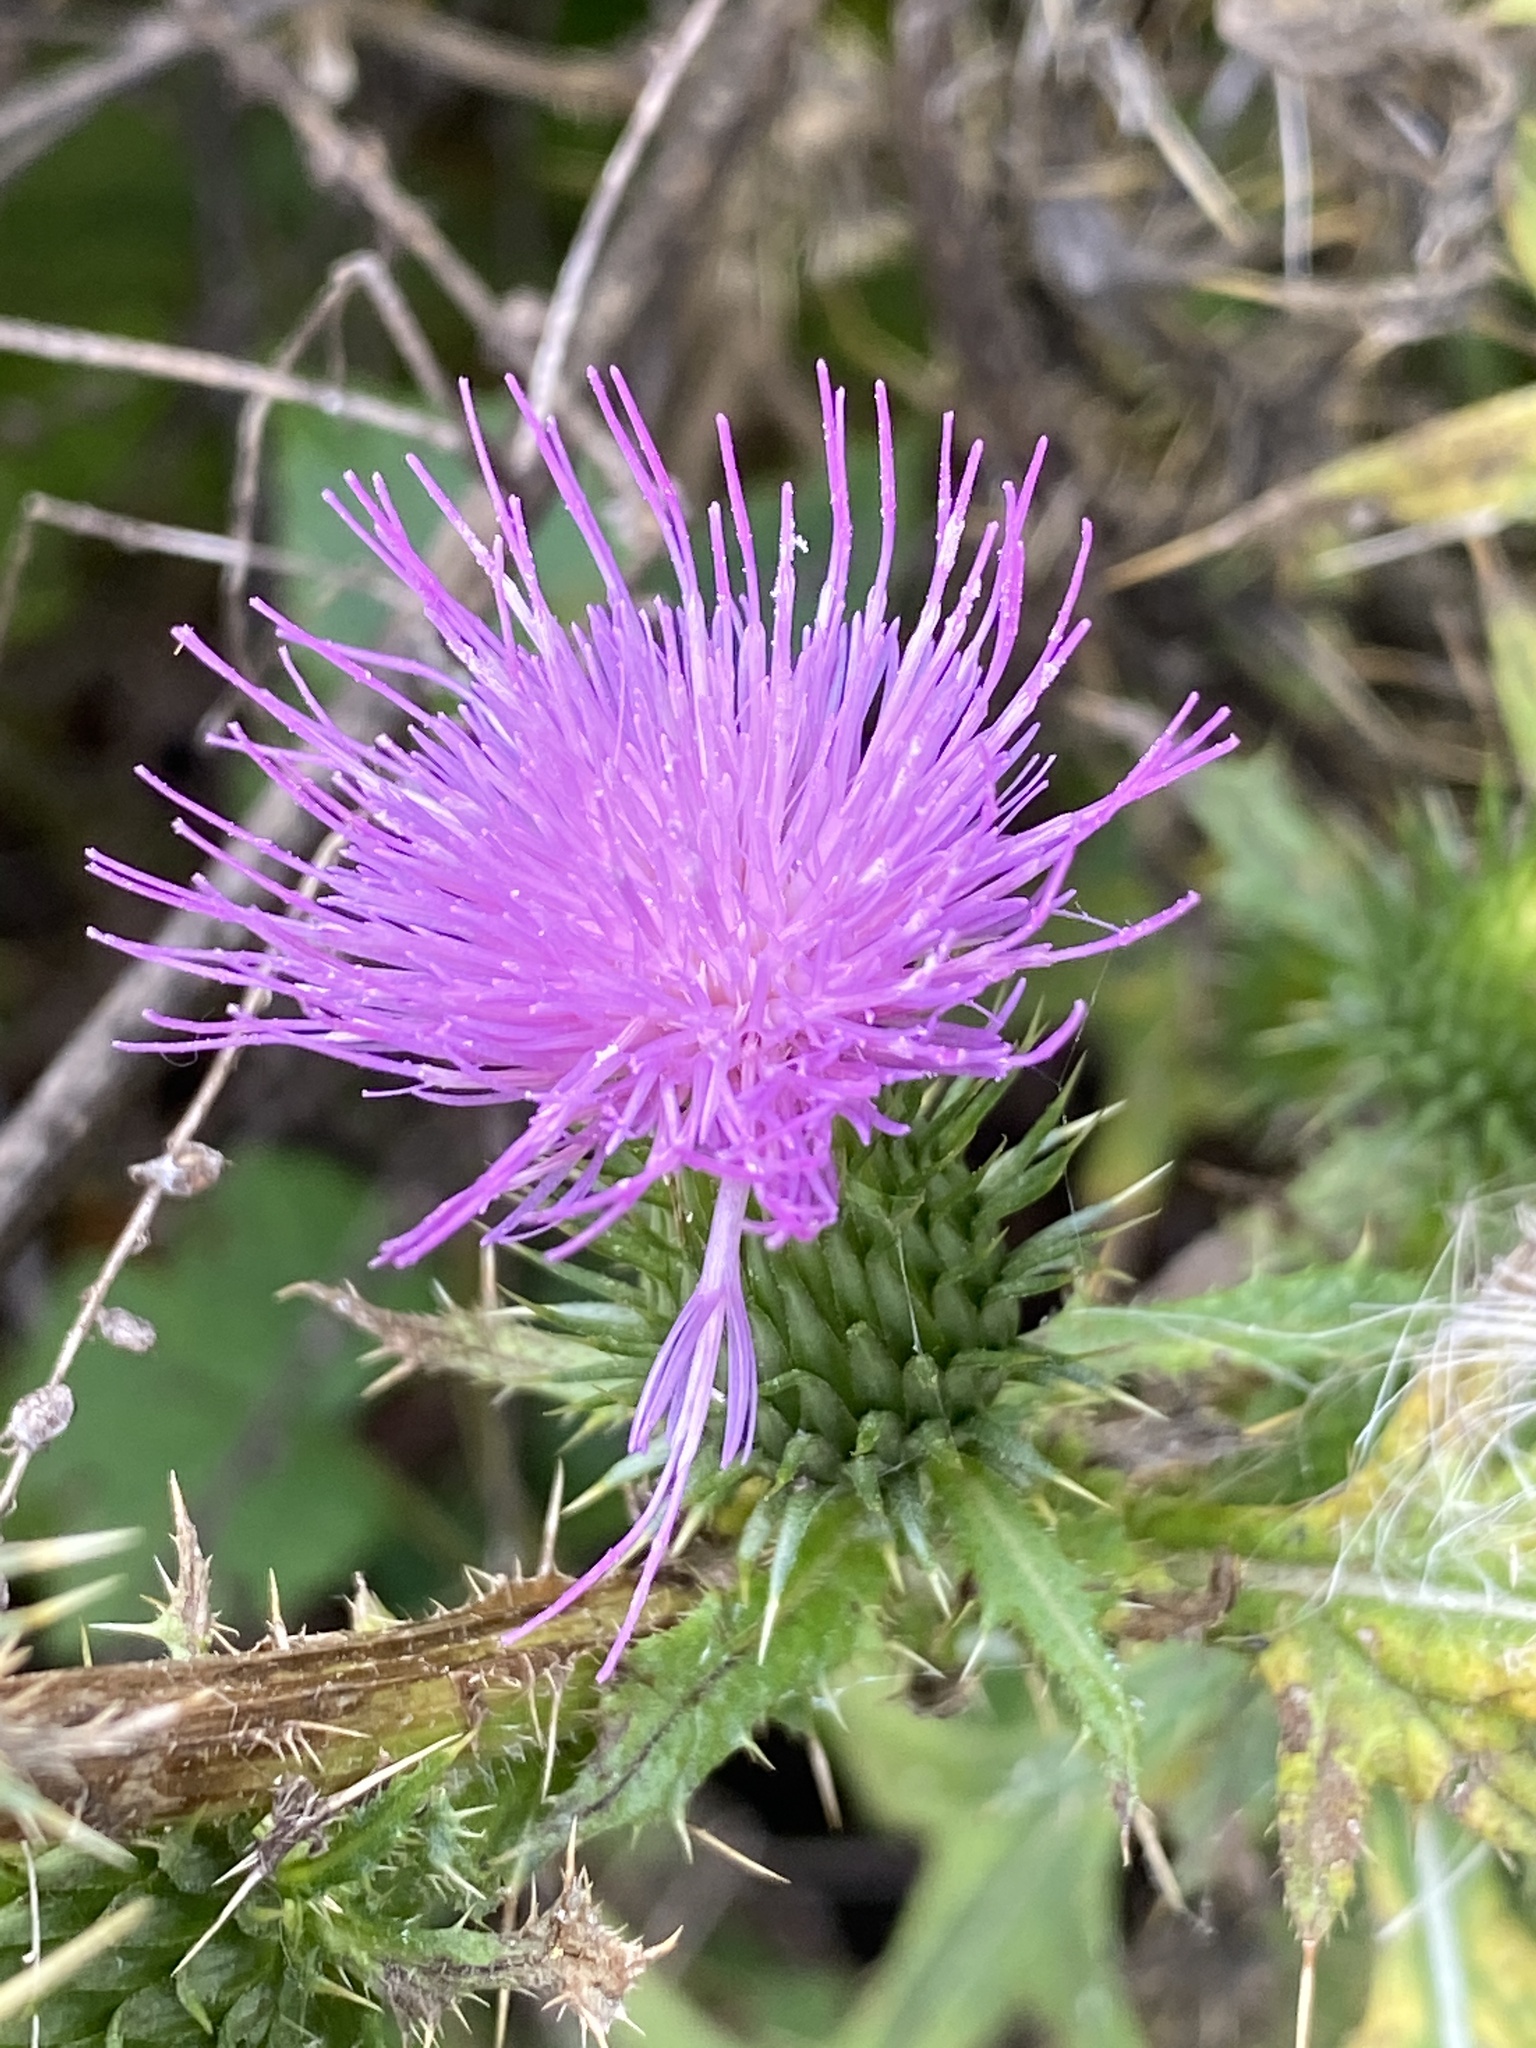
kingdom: Plantae
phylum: Tracheophyta
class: Magnoliopsida
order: Asterales
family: Asteraceae
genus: Cirsium
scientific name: Cirsium vulgare
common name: Bull thistle
